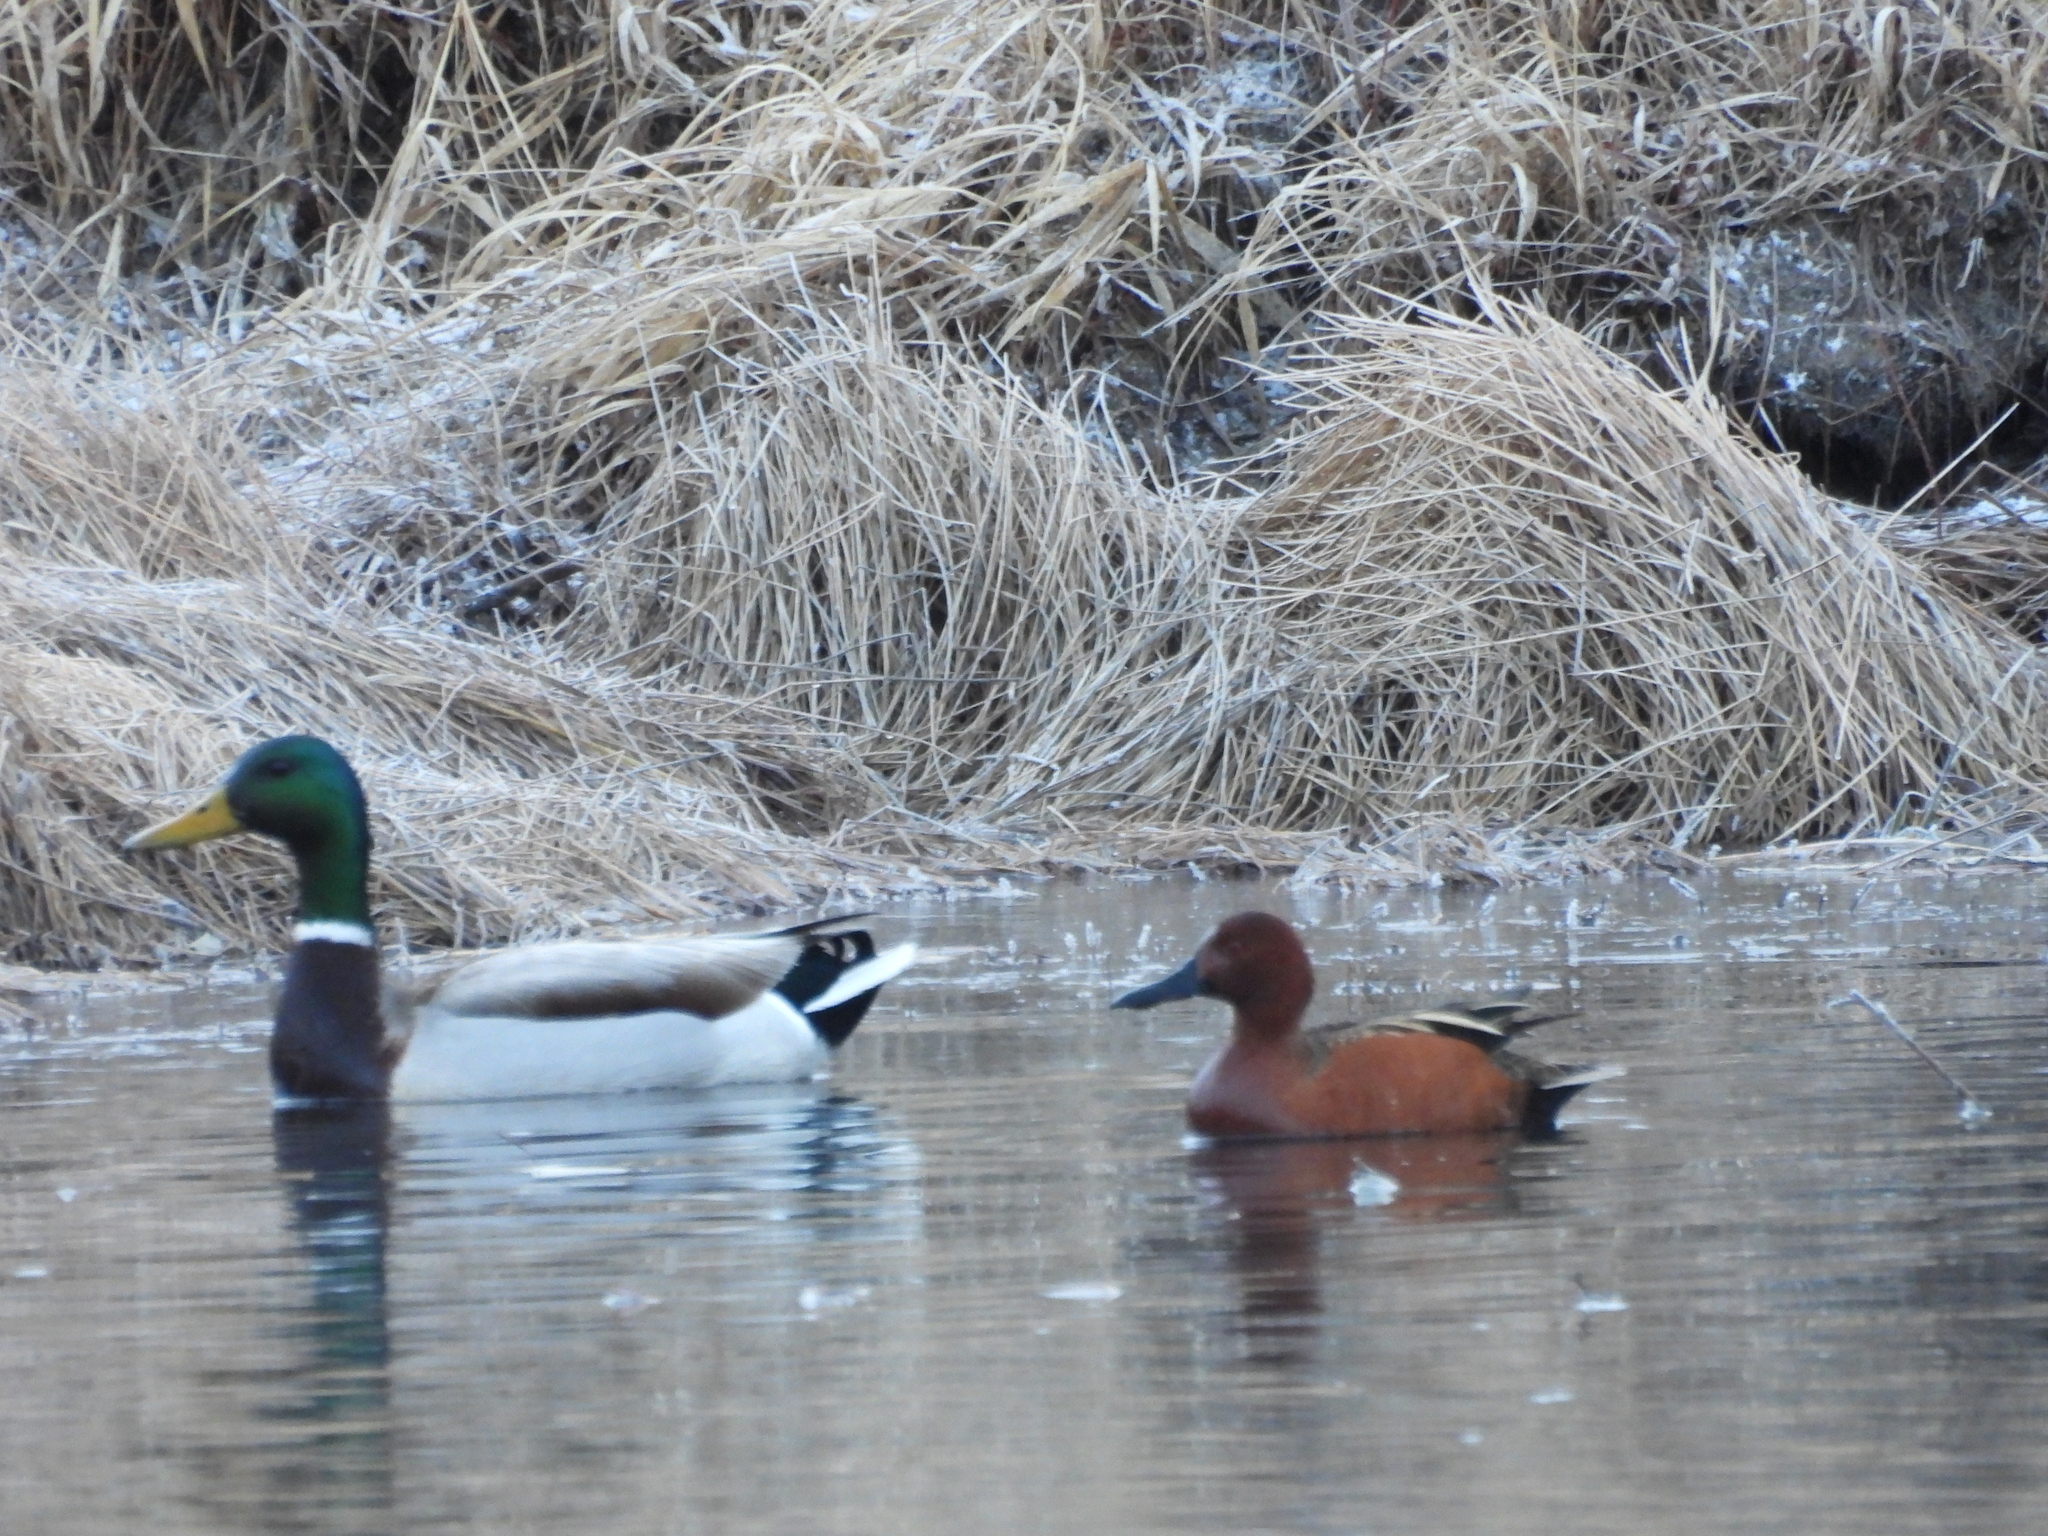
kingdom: Animalia
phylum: Chordata
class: Aves
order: Anseriformes
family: Anatidae
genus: Spatula
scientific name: Spatula cyanoptera
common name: Cinnamon teal
